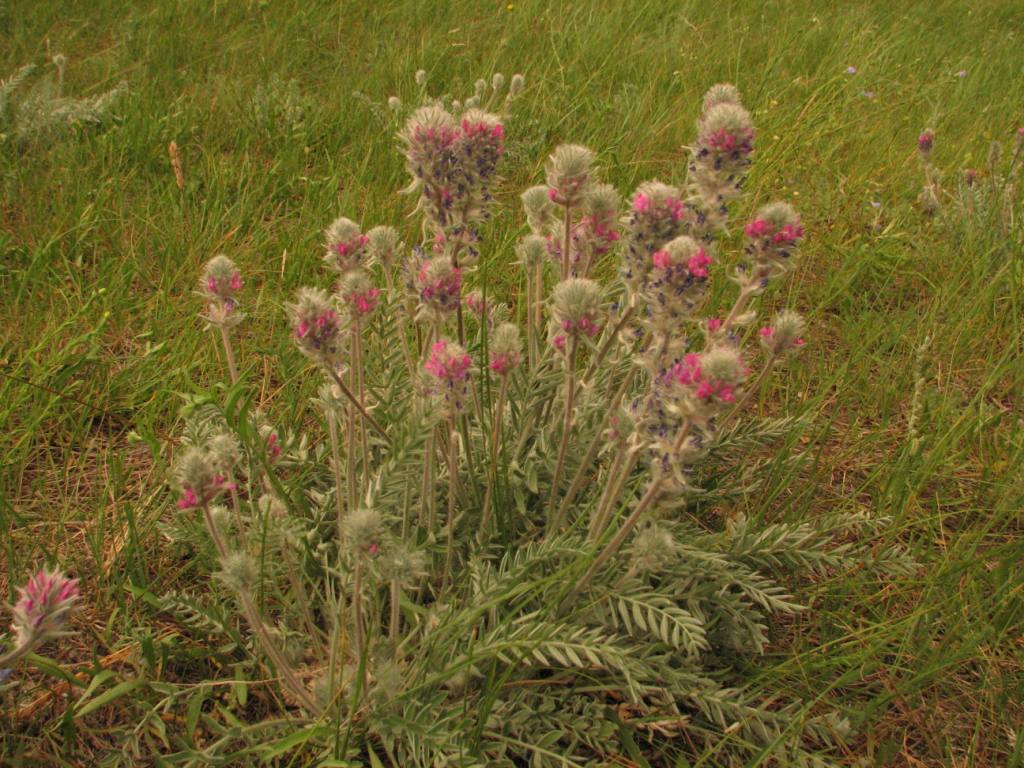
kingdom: Plantae
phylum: Tracheophyta
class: Magnoliopsida
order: Fabales
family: Fabaceae
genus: Oxytropis
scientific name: Oxytropis splendens
